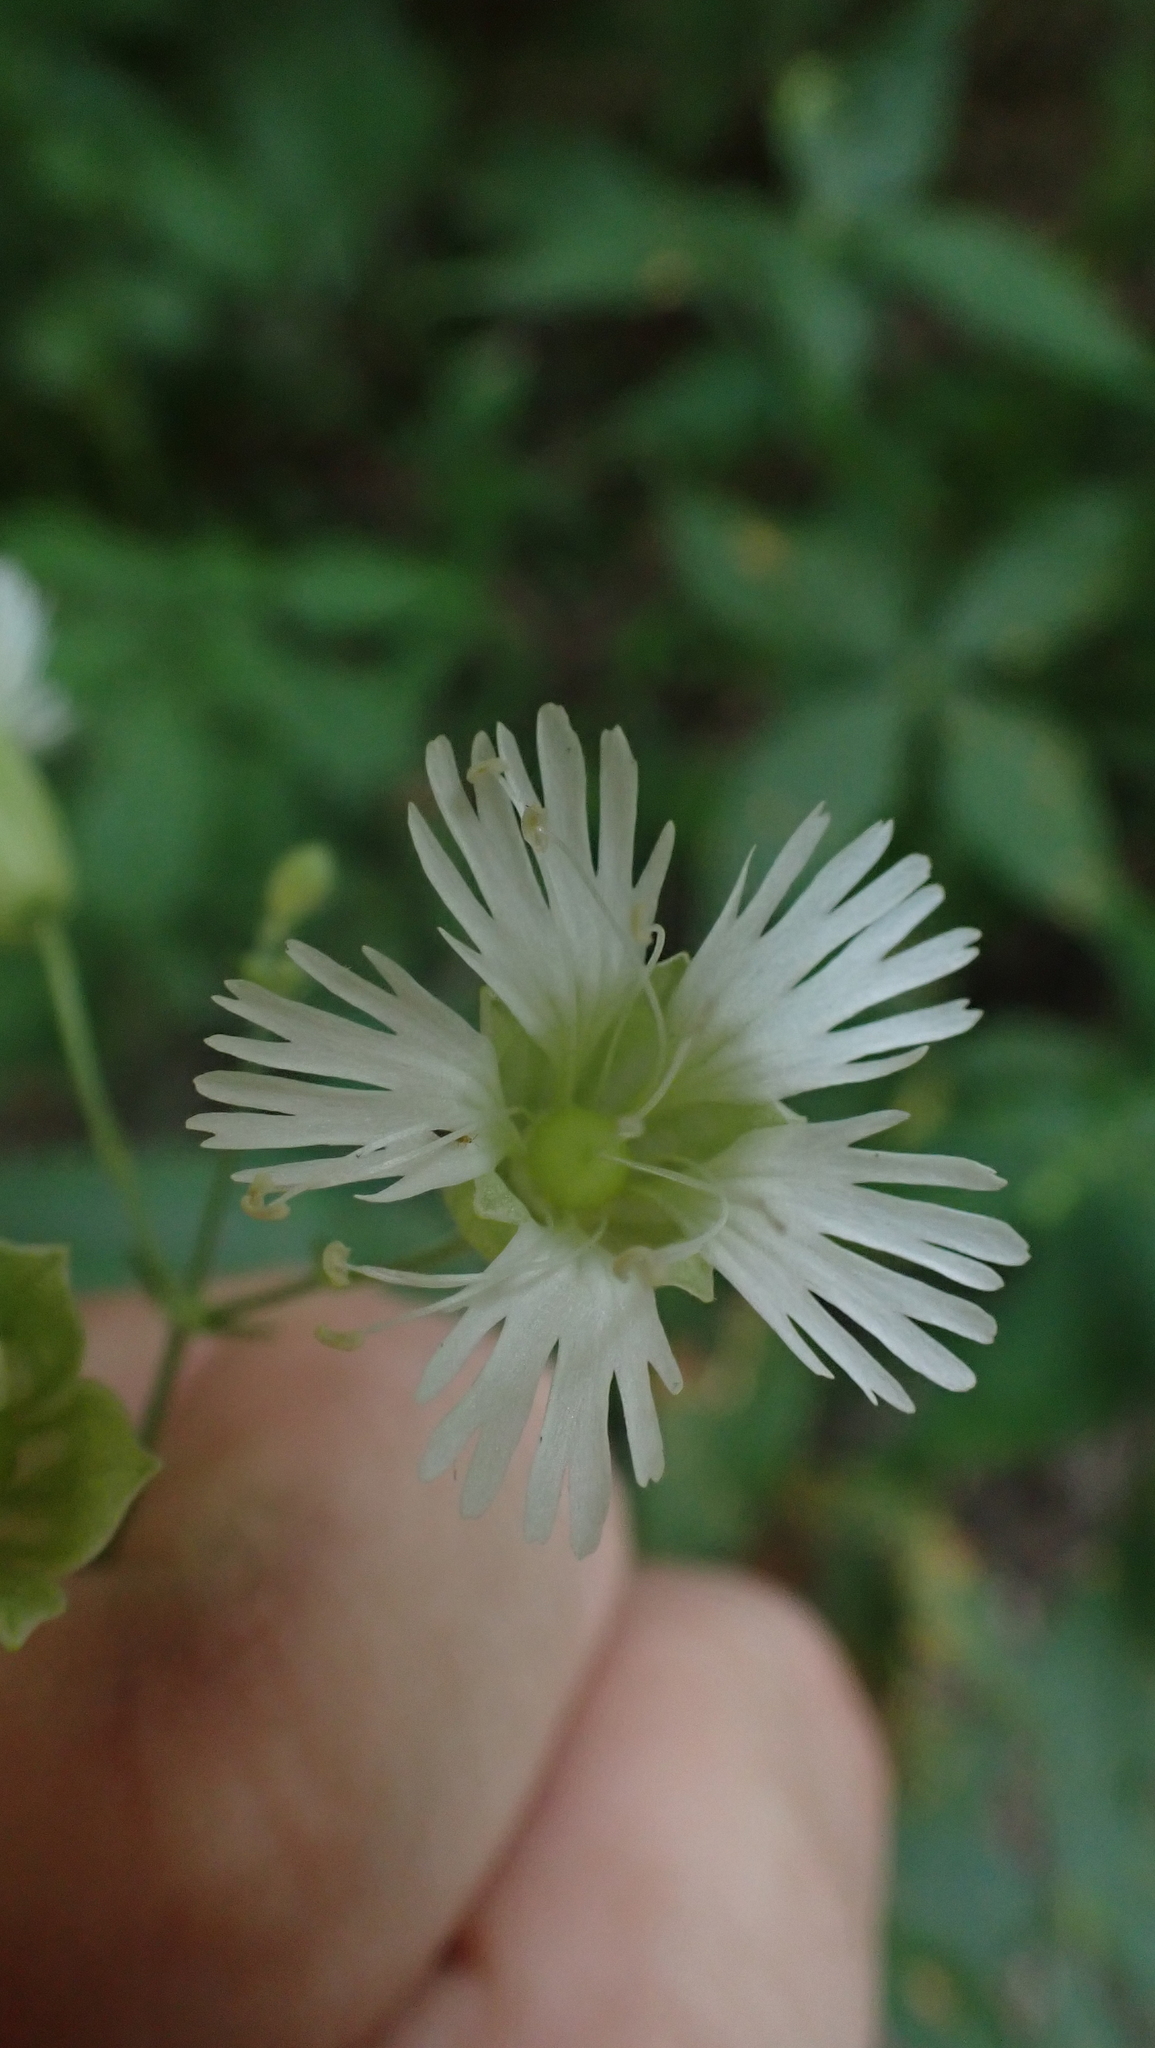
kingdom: Plantae
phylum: Tracheophyta
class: Magnoliopsida
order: Caryophyllales
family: Caryophyllaceae
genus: Silene
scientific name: Silene stellata
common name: Starry campion
